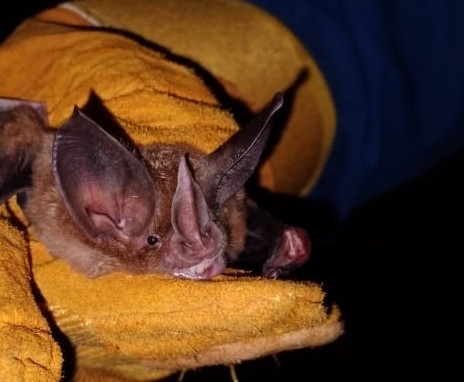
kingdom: Animalia
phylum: Chordata
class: Mammalia
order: Chiroptera
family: Phyllostomidae
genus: Mimon
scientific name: Mimon cozumelae
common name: Cozumelan golden bat
